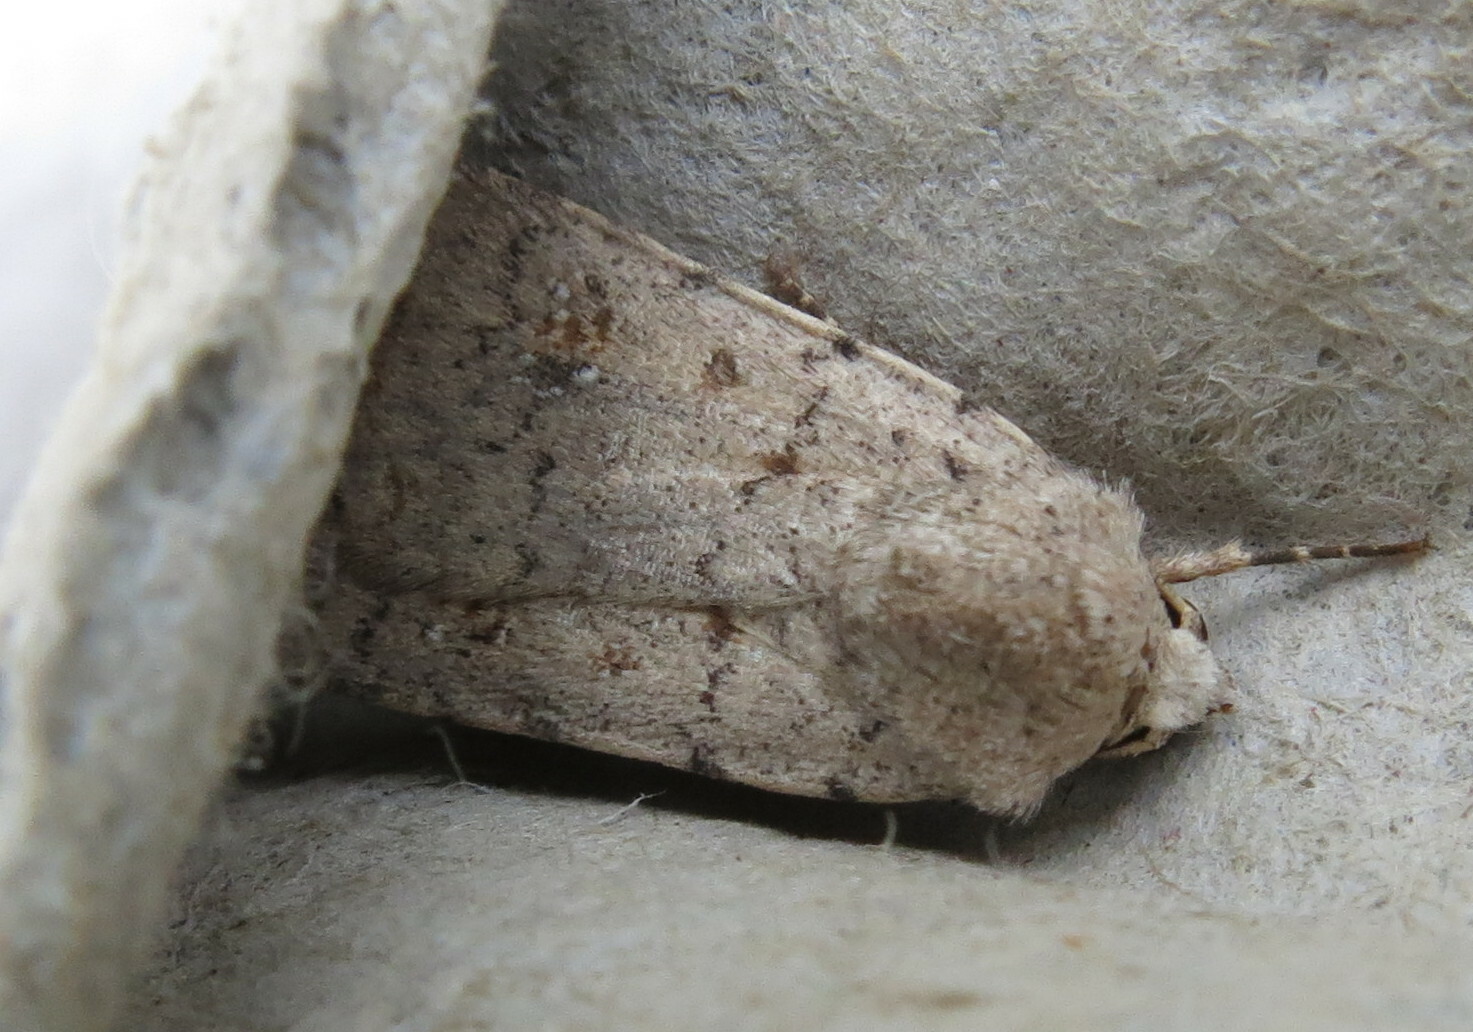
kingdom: Animalia
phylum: Arthropoda
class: Insecta
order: Lepidoptera
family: Noctuidae
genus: Caradrina
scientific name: Caradrina clavipalpis
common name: Pale mottled willow
